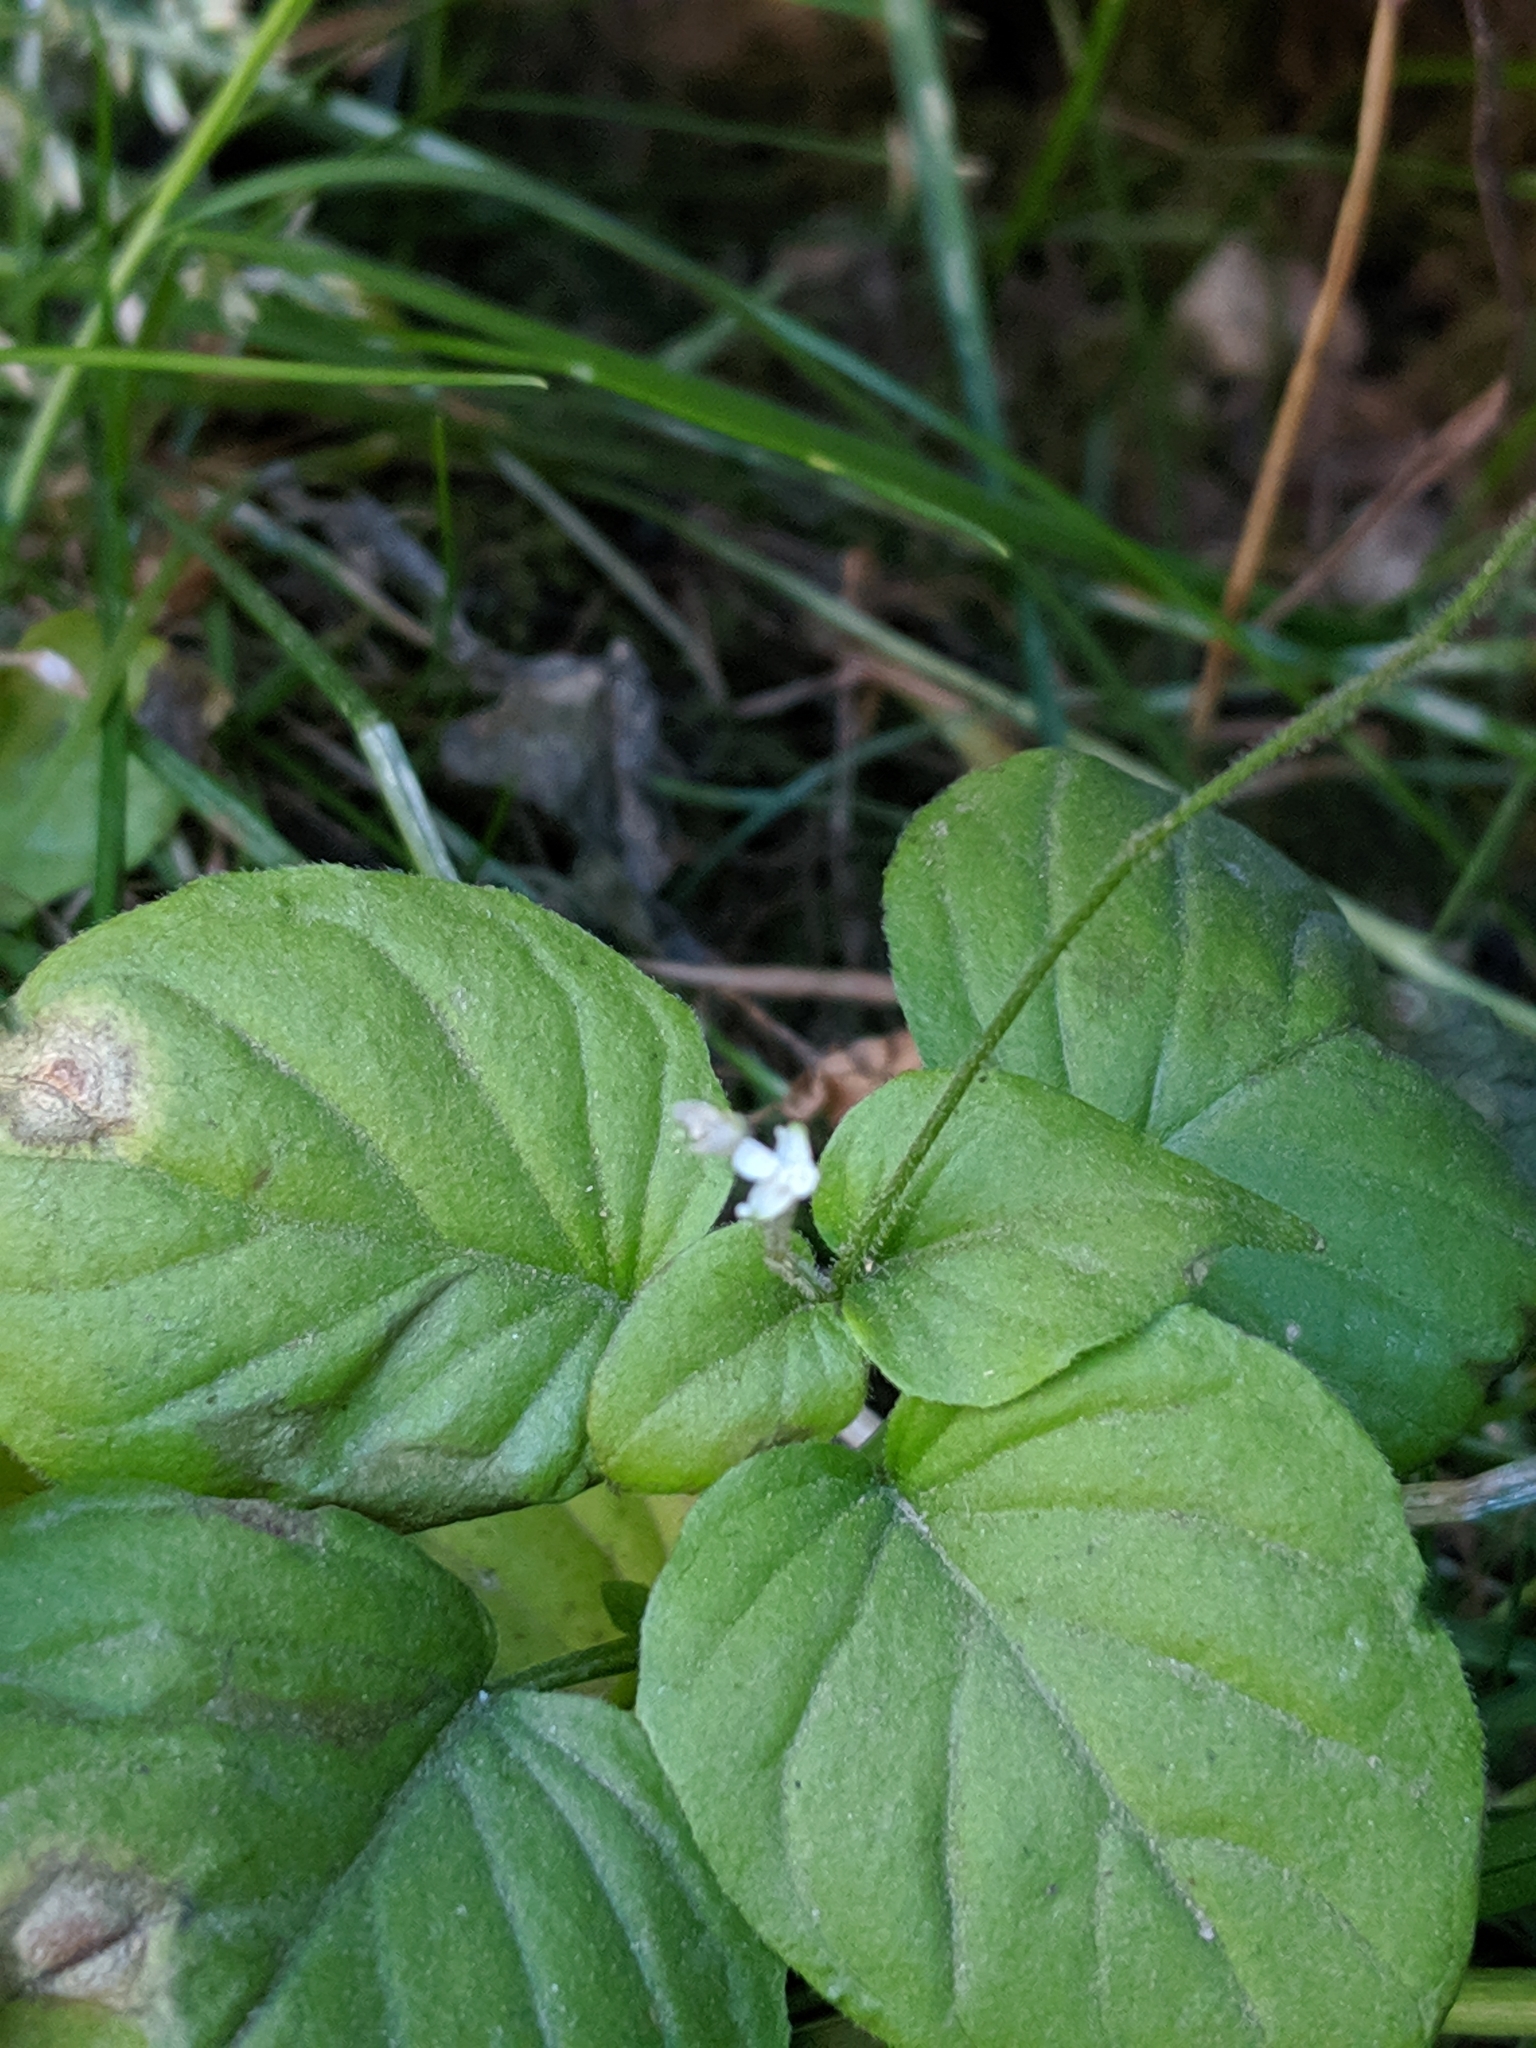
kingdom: Plantae
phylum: Tracheophyta
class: Magnoliopsida
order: Myrtales
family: Onagraceae
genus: Circaea
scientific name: Circaea alpina
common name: Alpine enchanter's-nightshade
